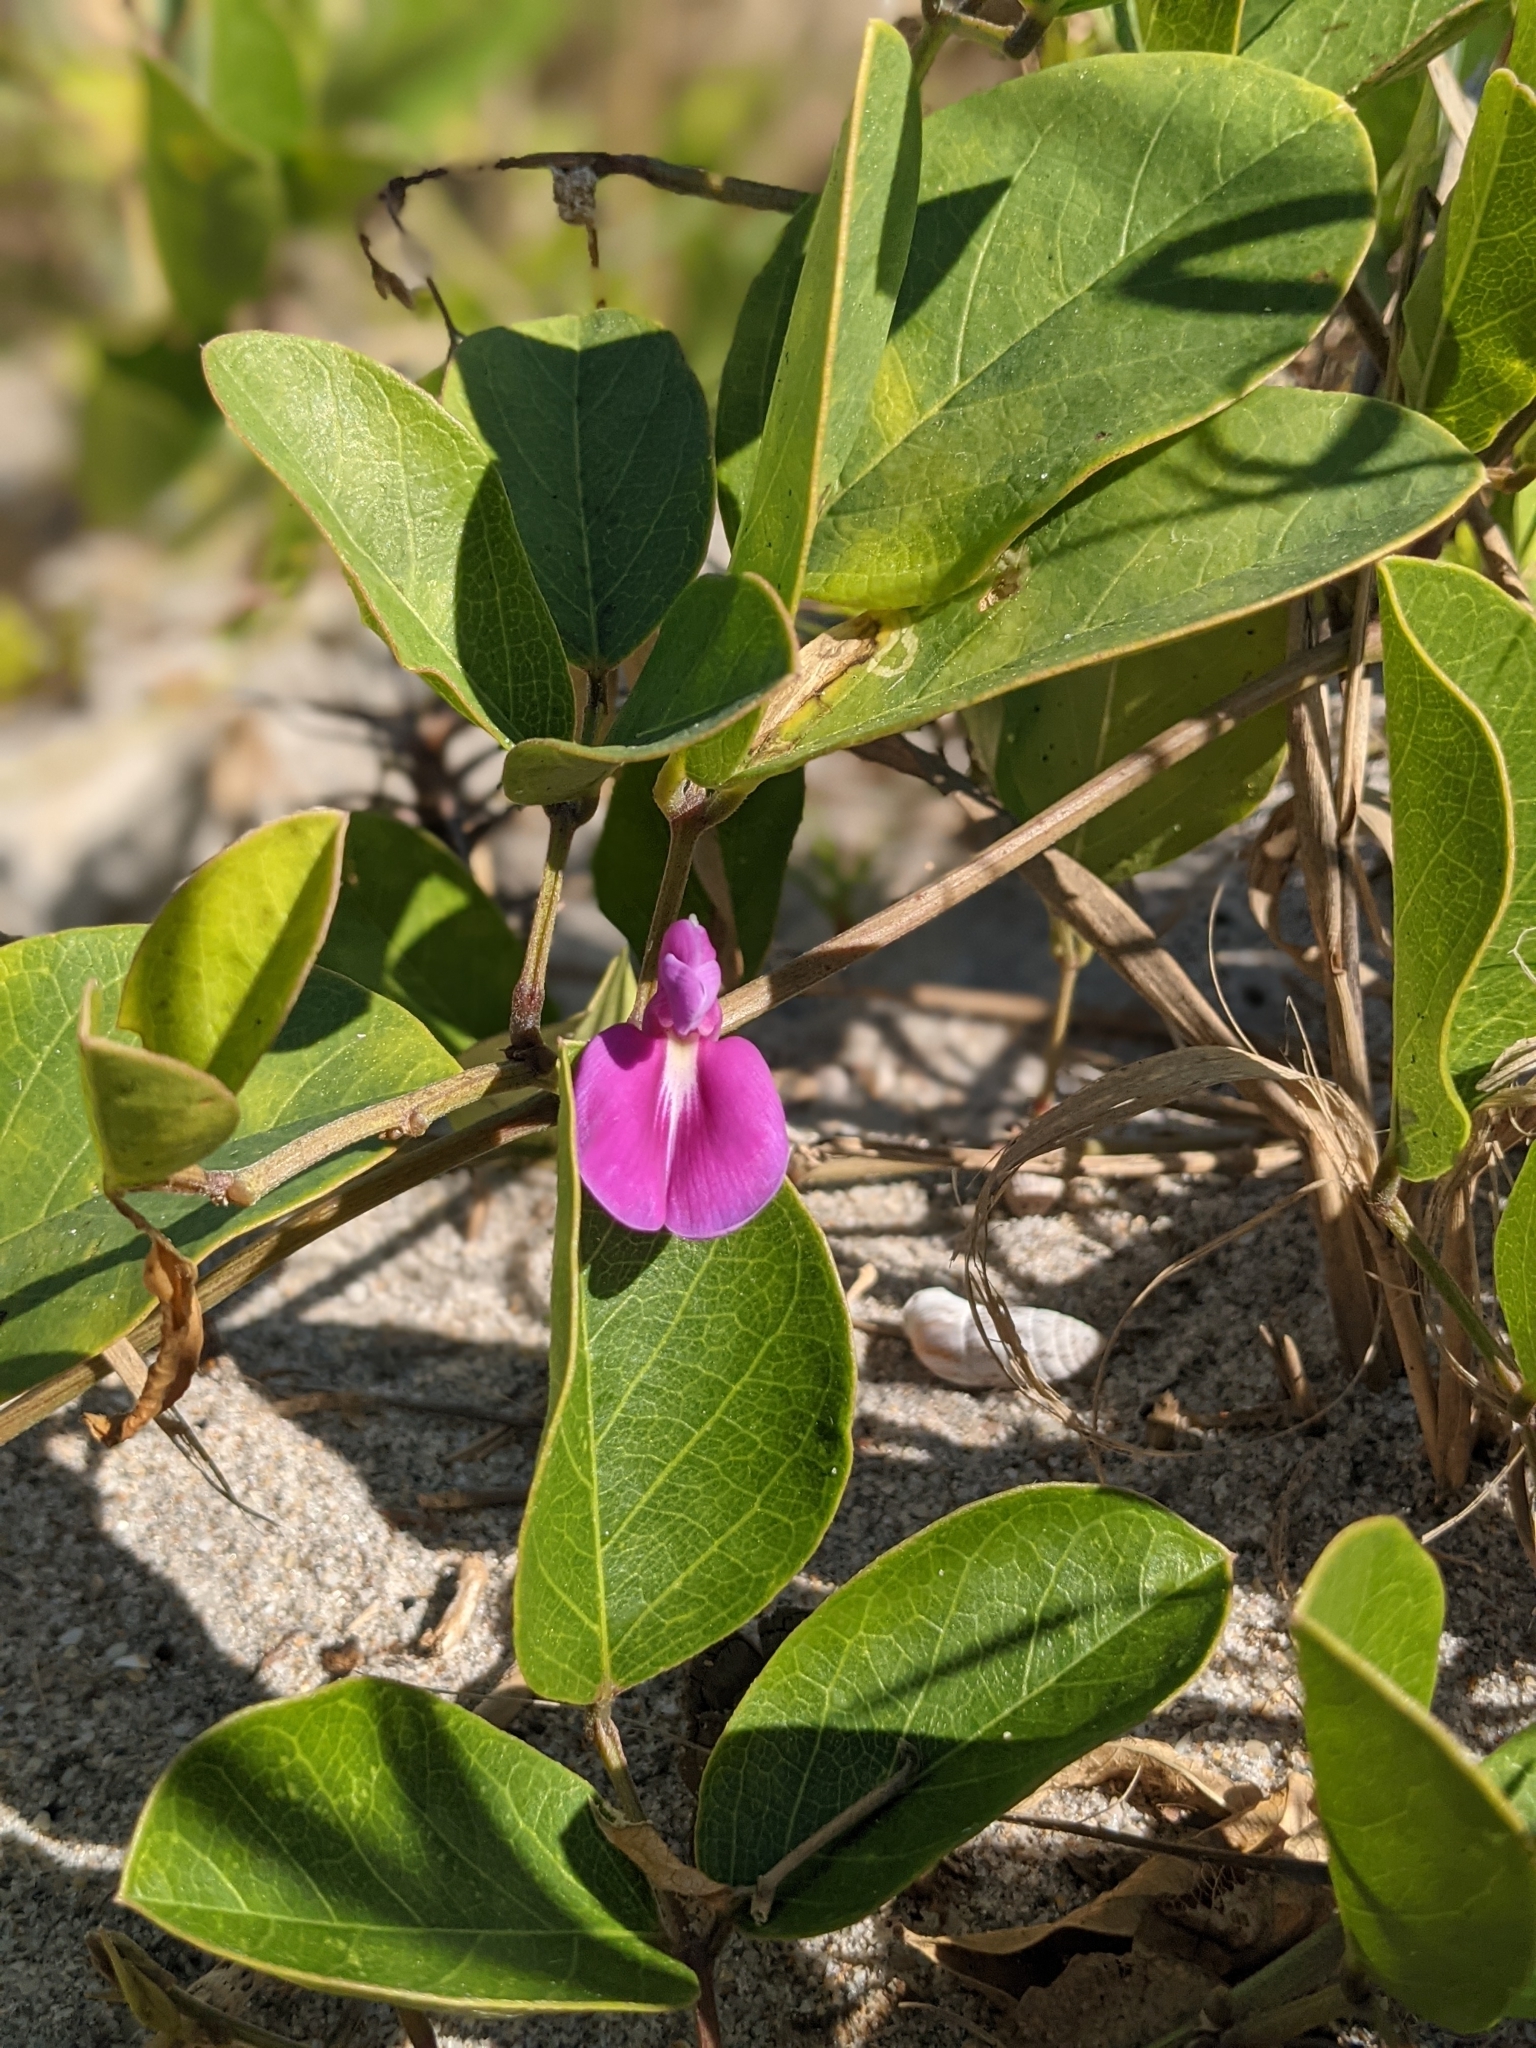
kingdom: Plantae
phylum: Tracheophyta
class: Magnoliopsida
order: Fabales
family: Fabaceae
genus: Canavalia
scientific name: Canavalia rosea
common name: Beach-bean
